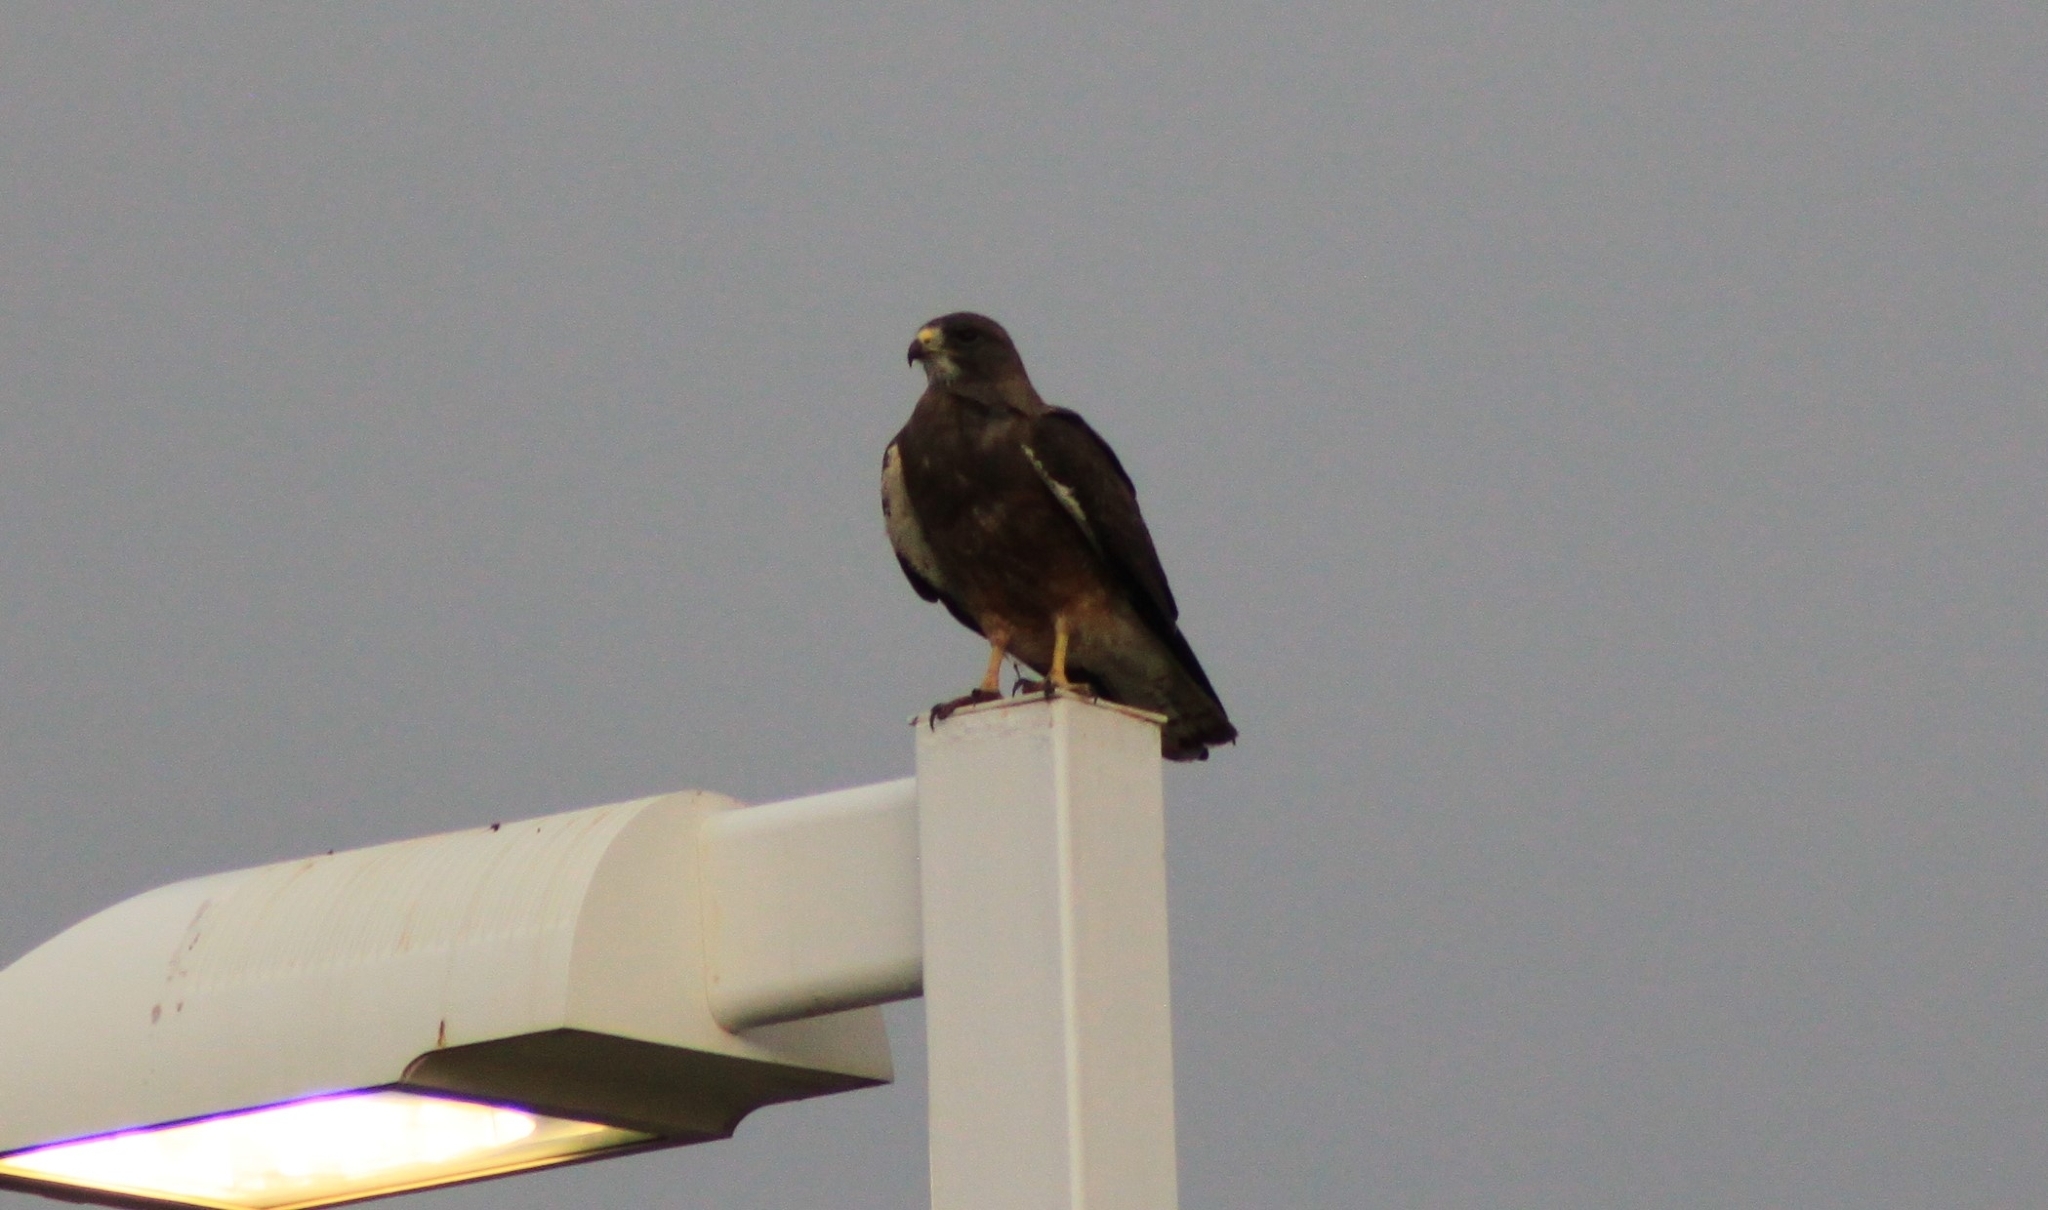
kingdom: Animalia
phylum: Chordata
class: Aves
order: Accipitriformes
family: Accipitridae
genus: Buteo
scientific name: Buteo swainsoni
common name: Swainson's hawk
